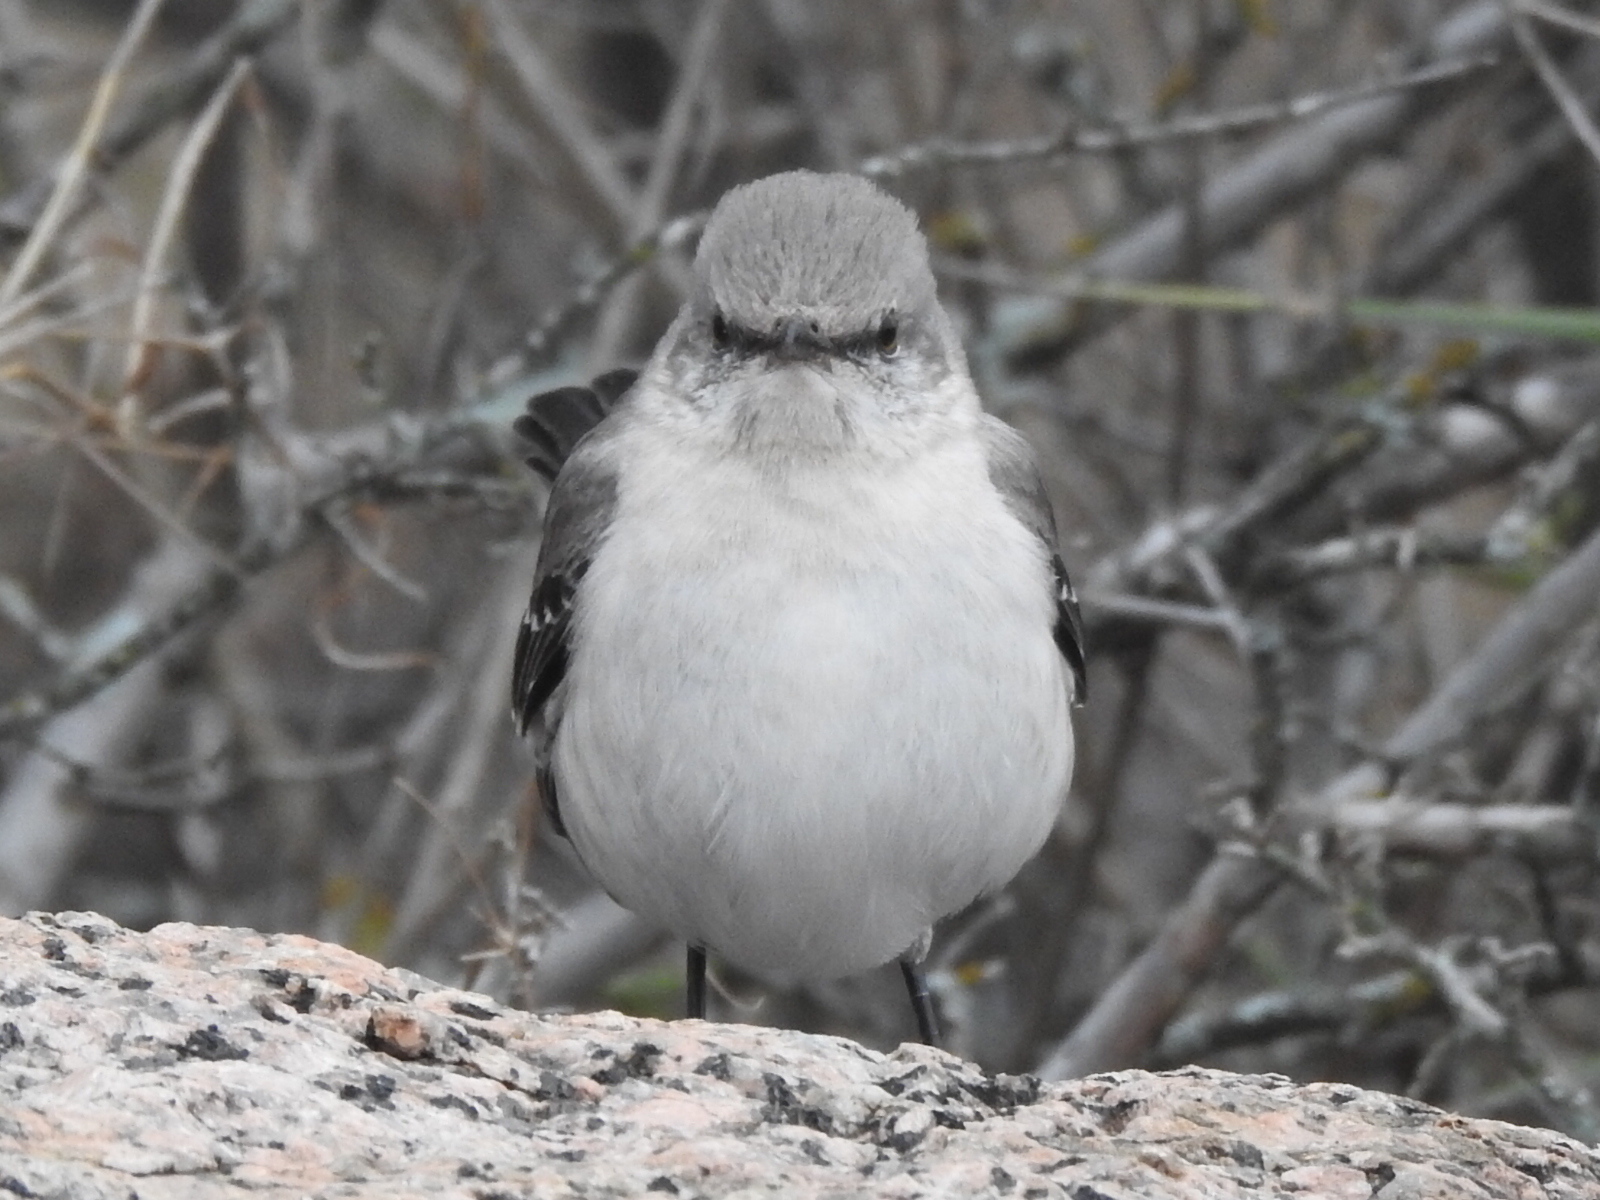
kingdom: Animalia
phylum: Chordata
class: Aves
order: Passeriformes
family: Mimidae
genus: Mimus
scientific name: Mimus polyglottos
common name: Northern mockingbird
